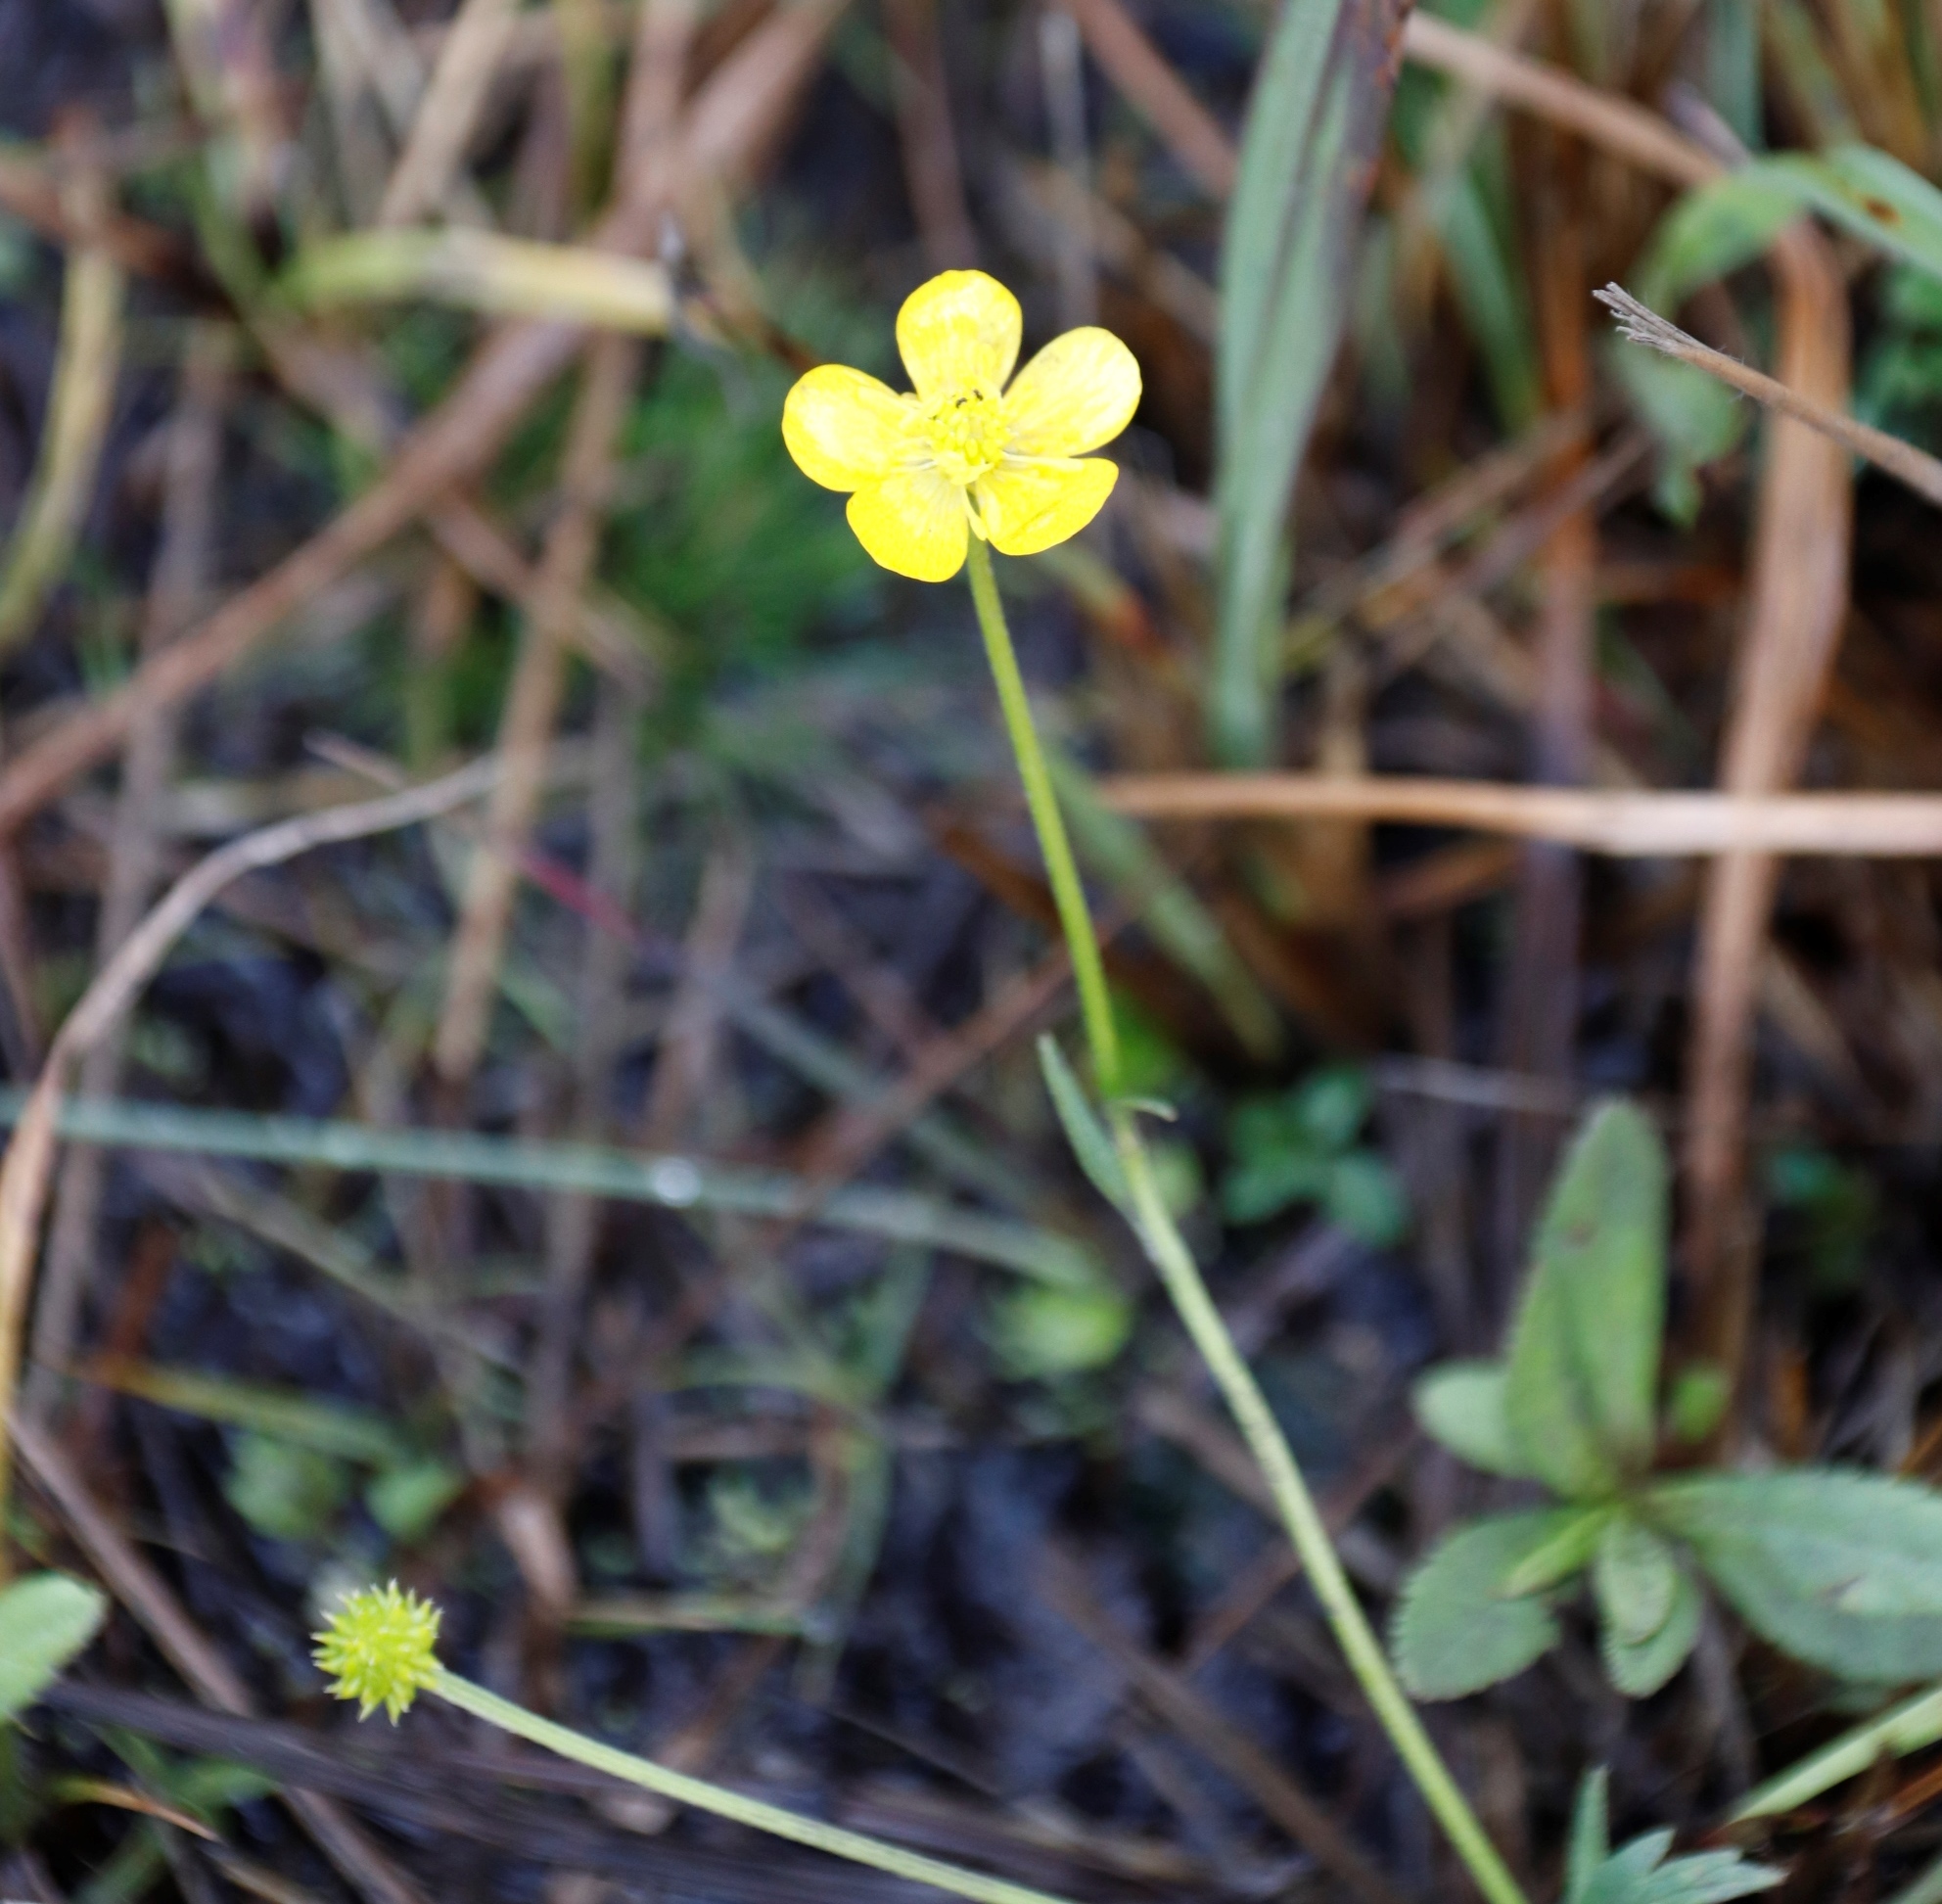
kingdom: Plantae
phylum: Tracheophyta
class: Magnoliopsida
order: Ranunculales
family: Ranunculaceae
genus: Ranunculus
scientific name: Ranunculus multifidus
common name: Wild buttercup
